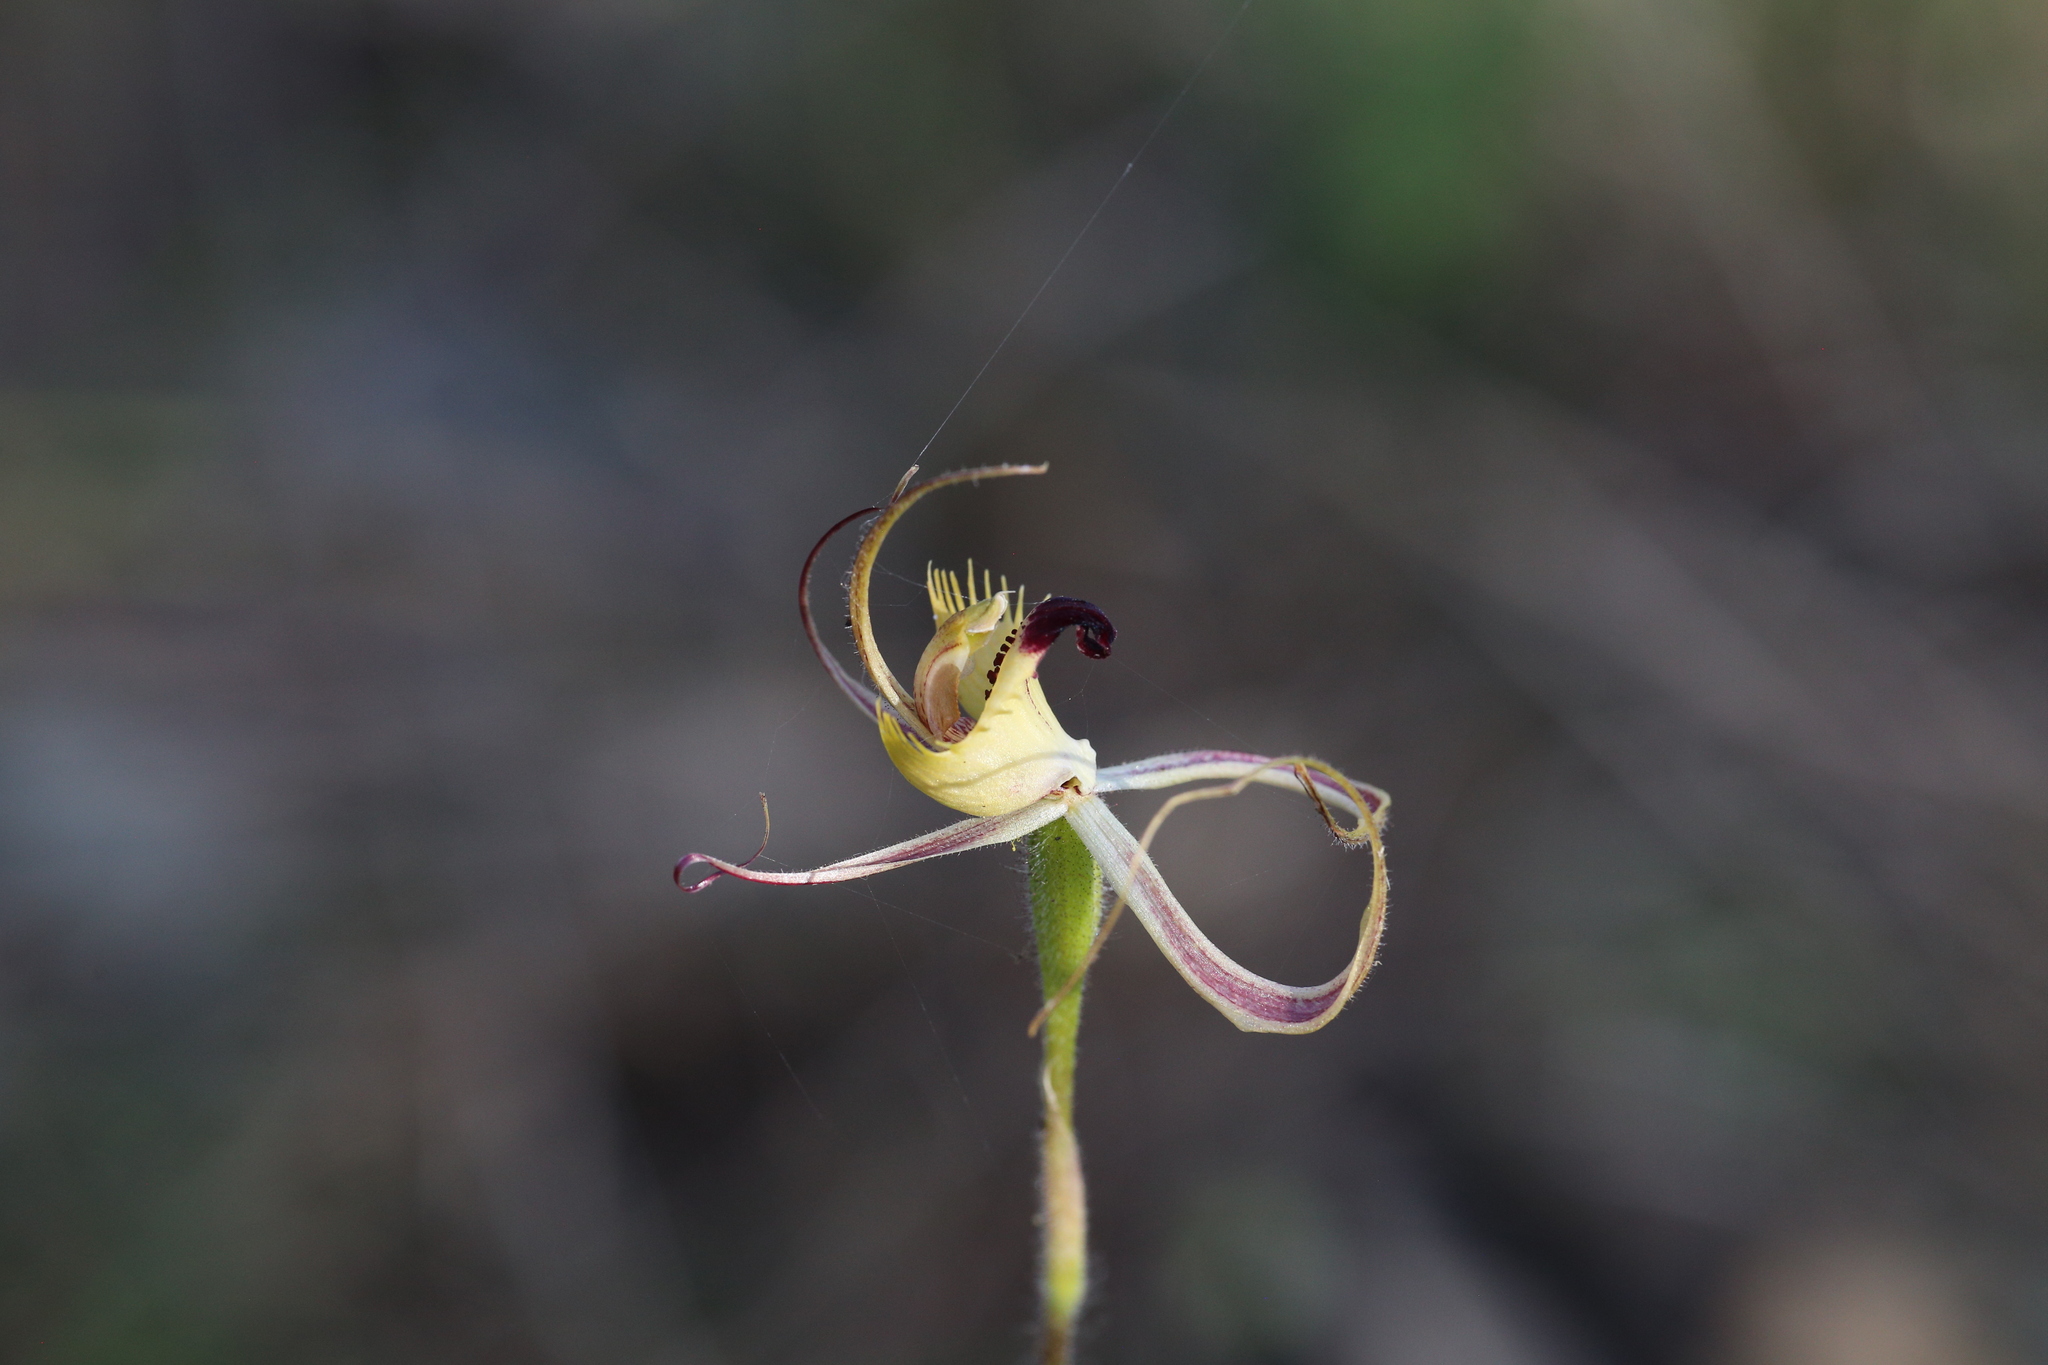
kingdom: Plantae
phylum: Tracheophyta
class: Liliopsida
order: Asparagales
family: Orchidaceae
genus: Caladenia
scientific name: Caladenia attingens
